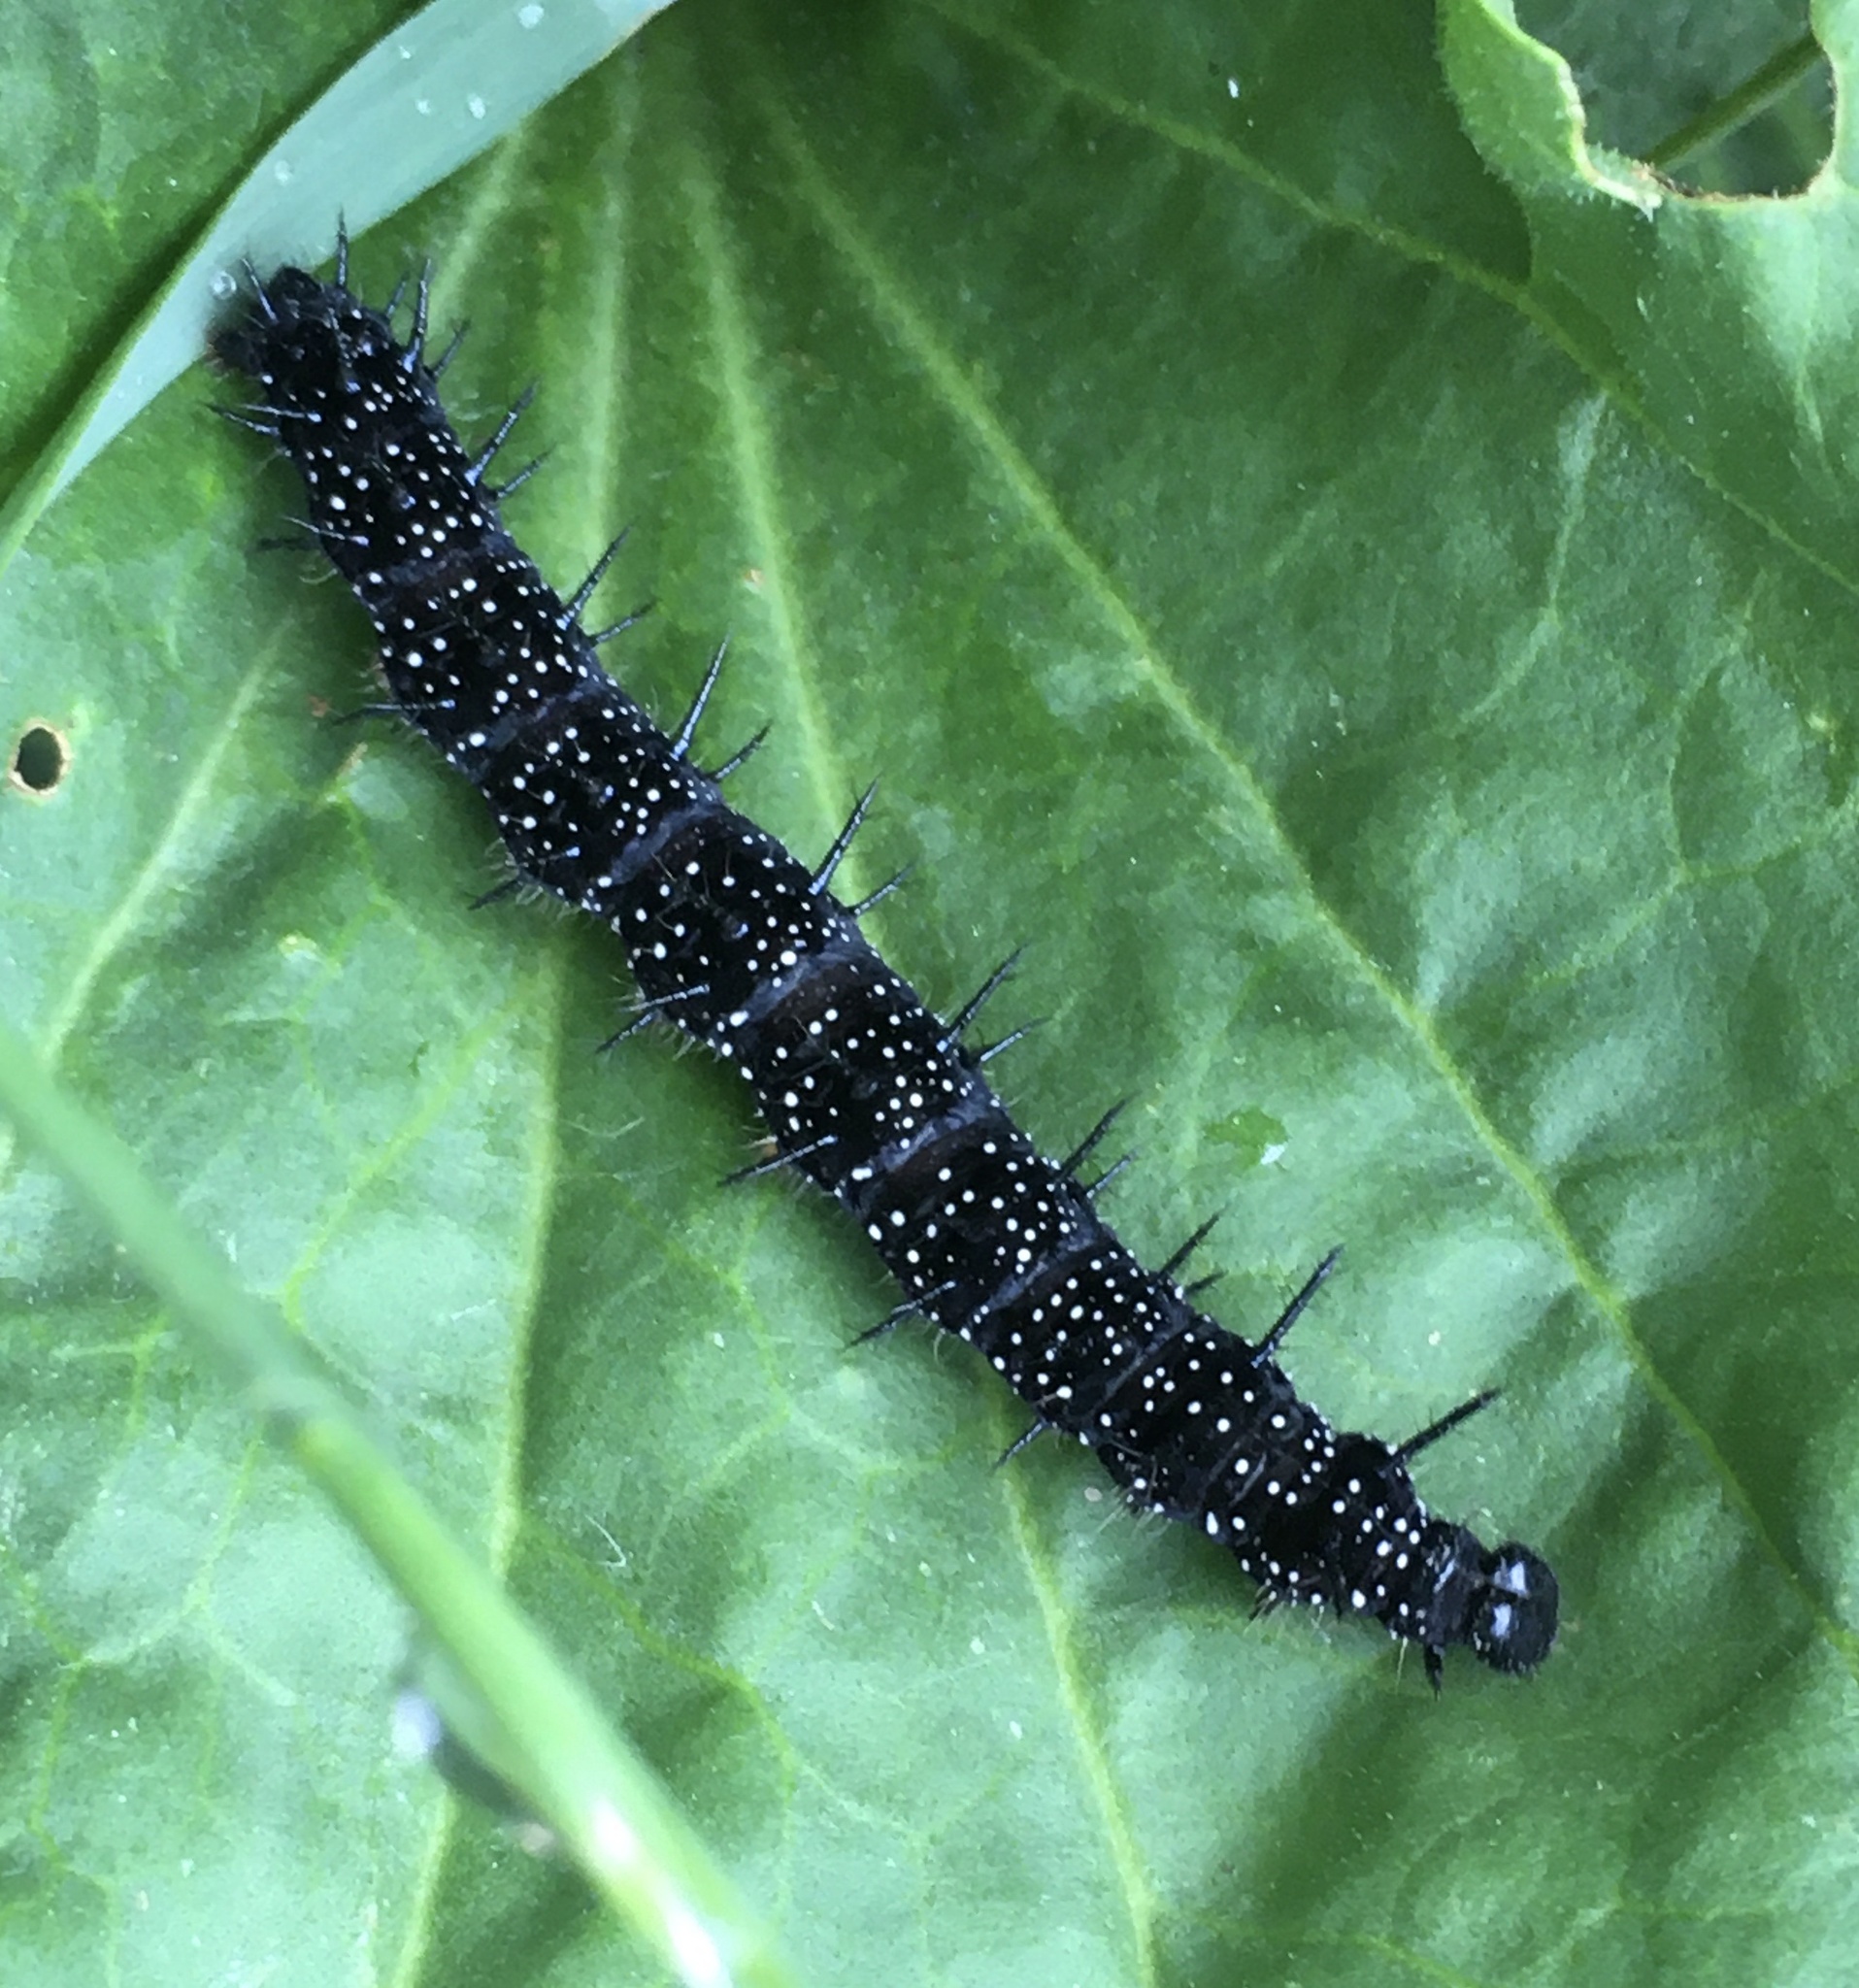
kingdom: Animalia
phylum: Arthropoda
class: Insecta
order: Lepidoptera
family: Nymphalidae
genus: Aglais
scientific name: Aglais io
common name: Peacock
